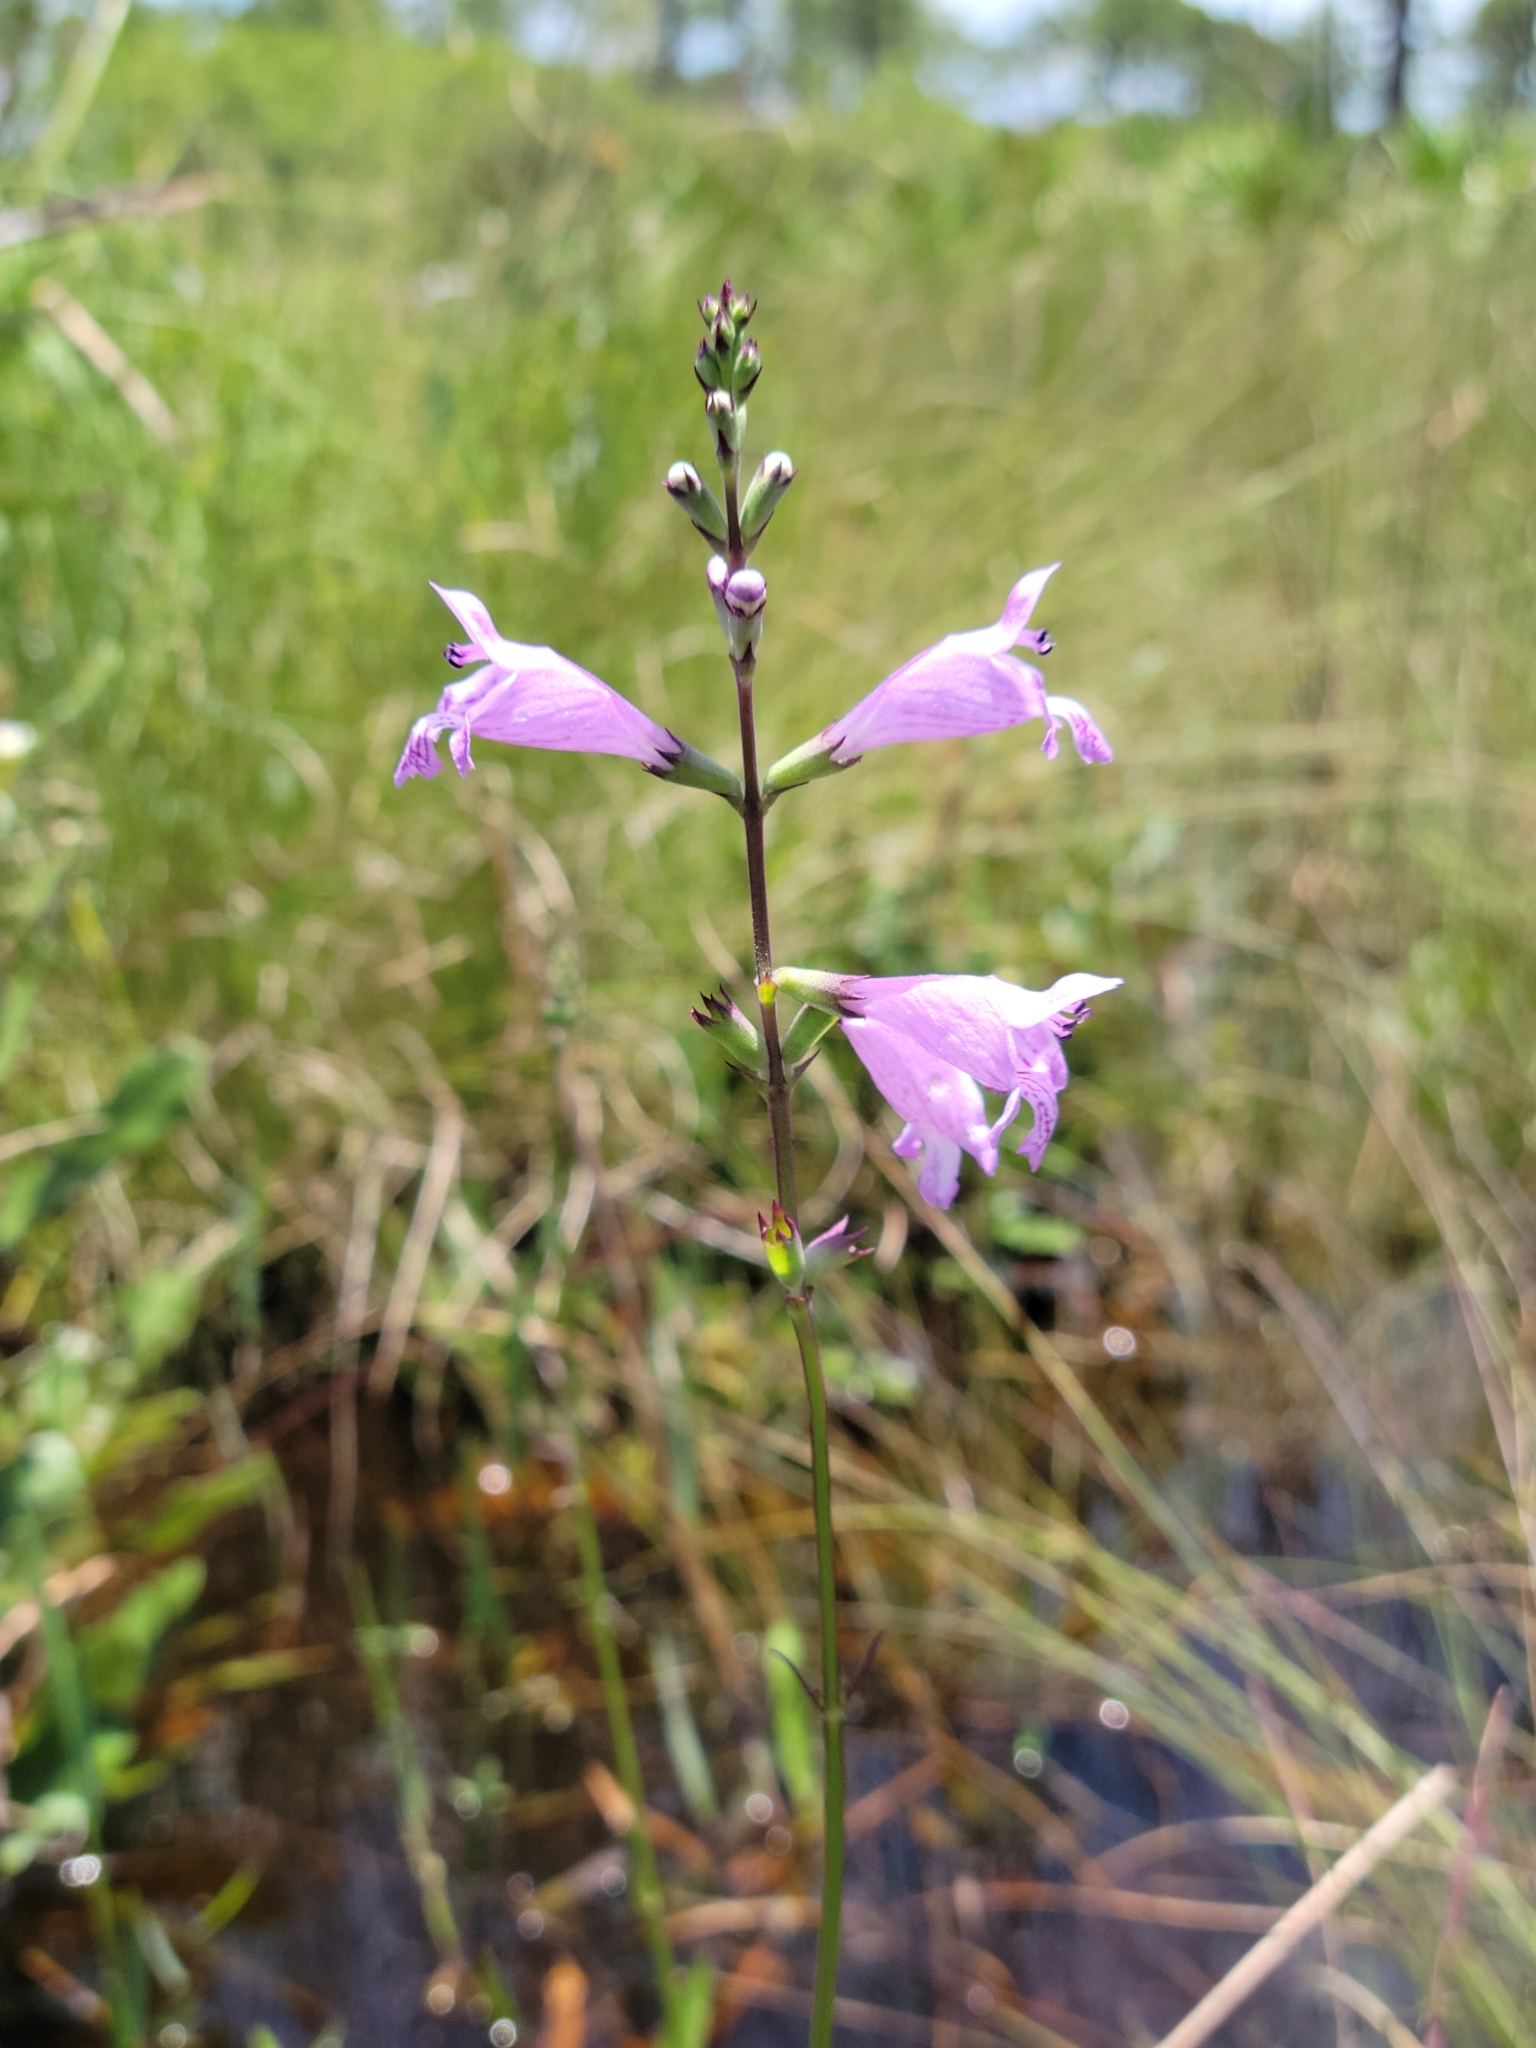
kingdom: Plantae
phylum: Tracheophyta
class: Magnoliopsida
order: Lamiales
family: Lamiaceae
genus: Physostegia
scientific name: Physostegia purpurea
